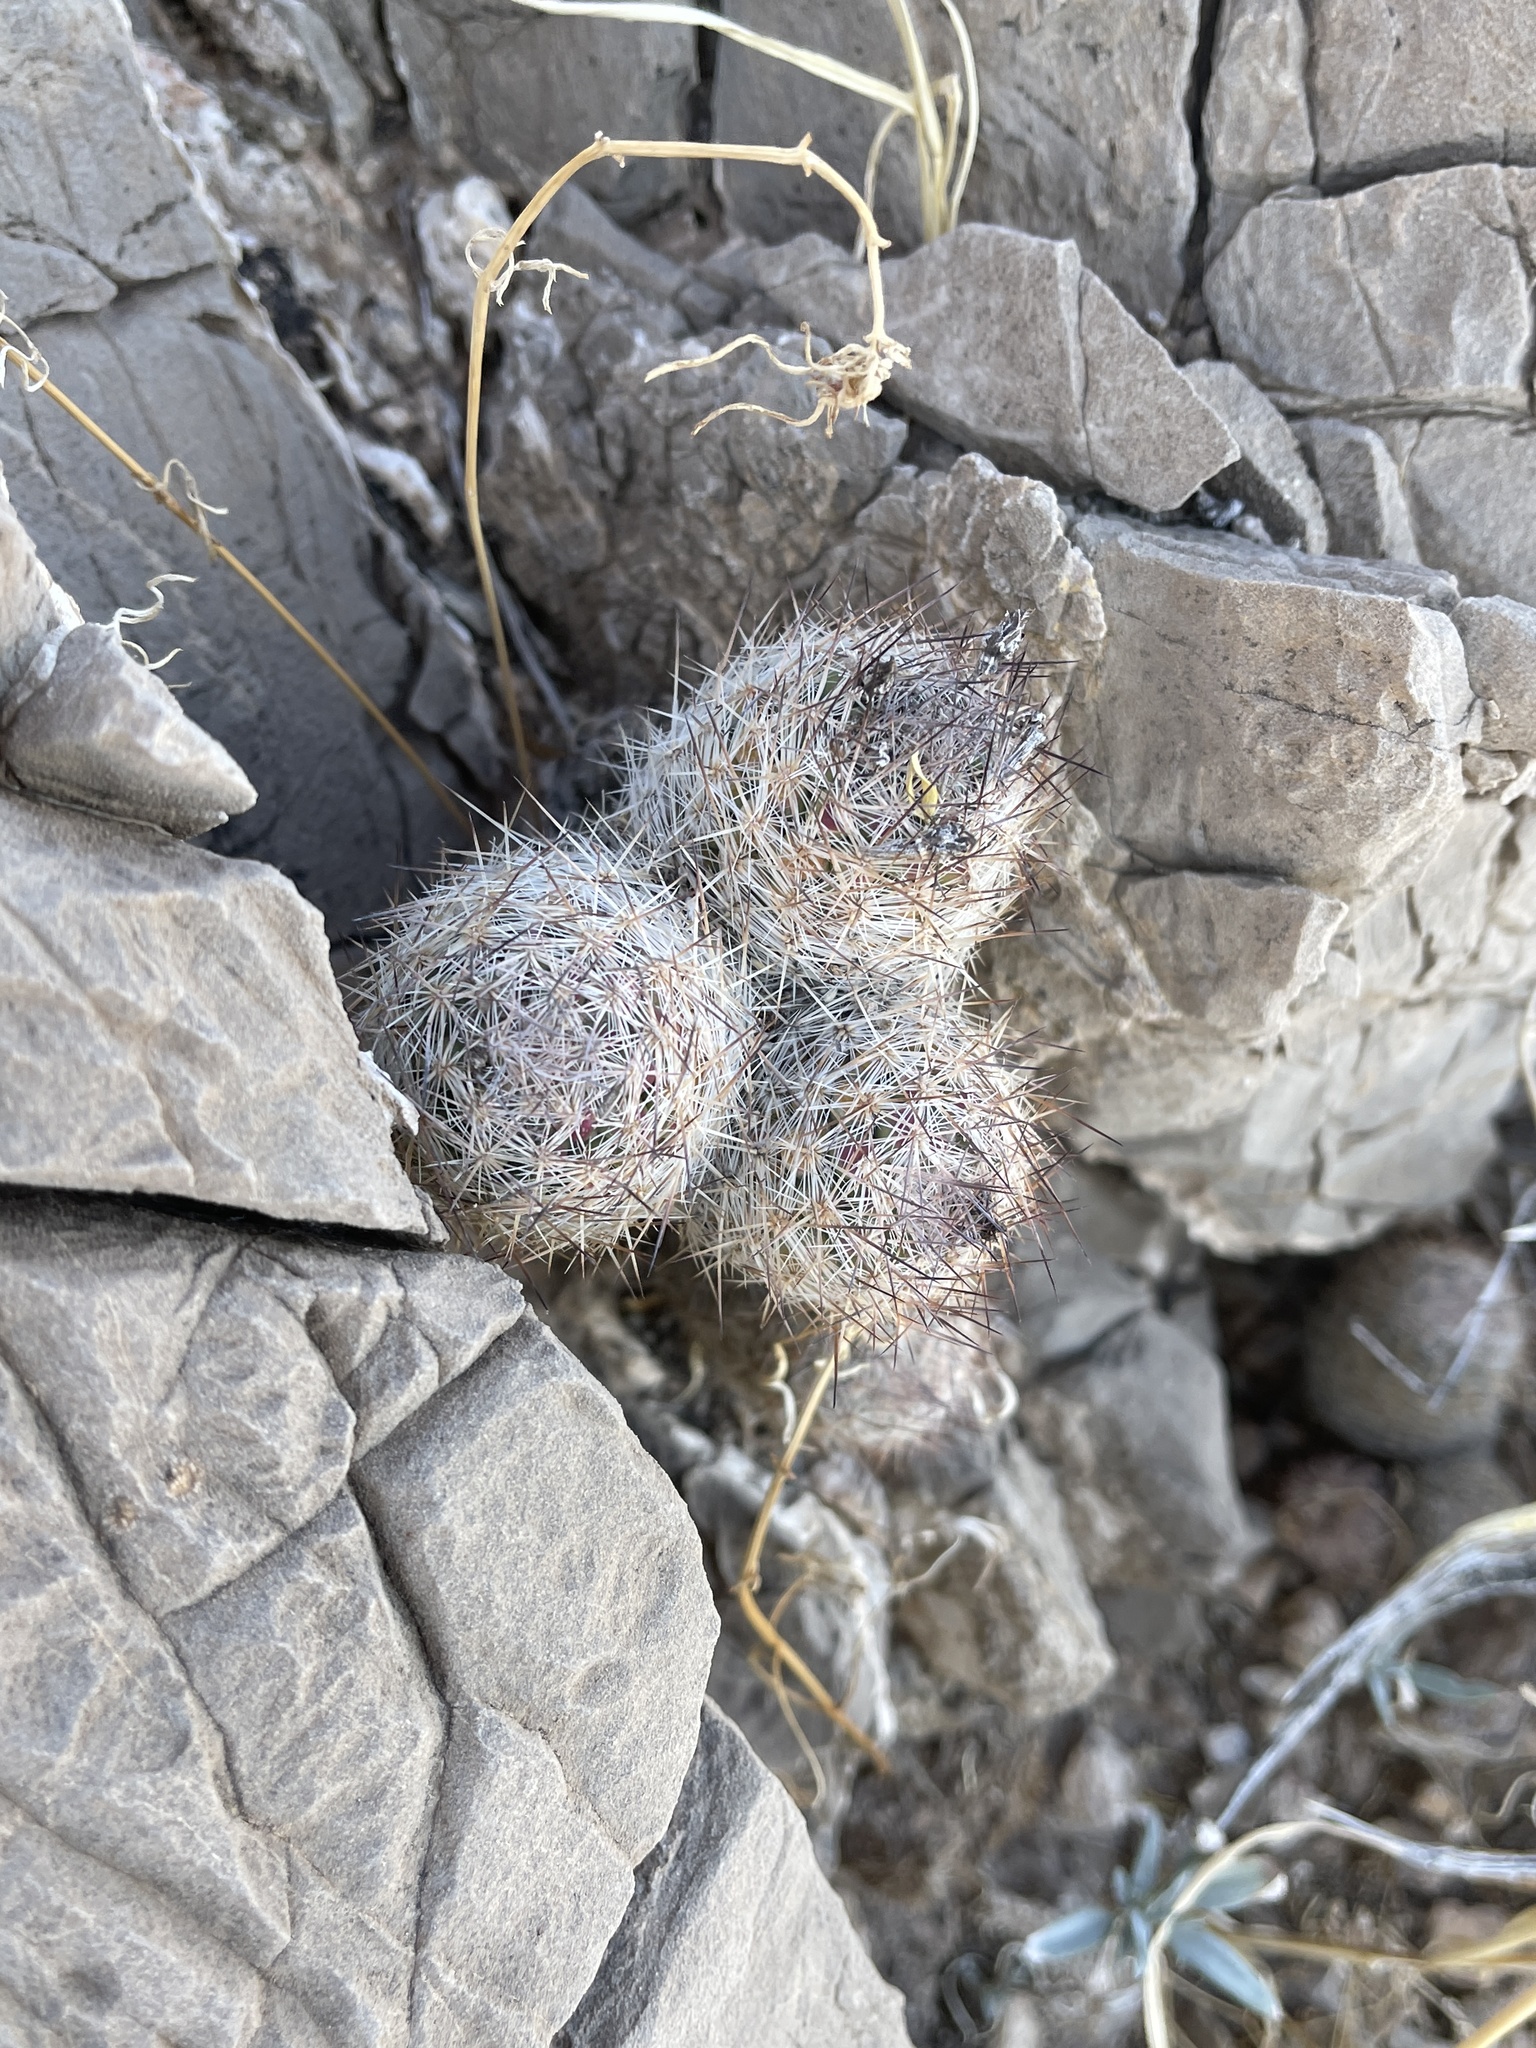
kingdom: Plantae
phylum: Tracheophyta
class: Magnoliopsida
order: Caryophyllales
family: Cactaceae
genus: Pelecyphora
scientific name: Pelecyphora tuberculosa
